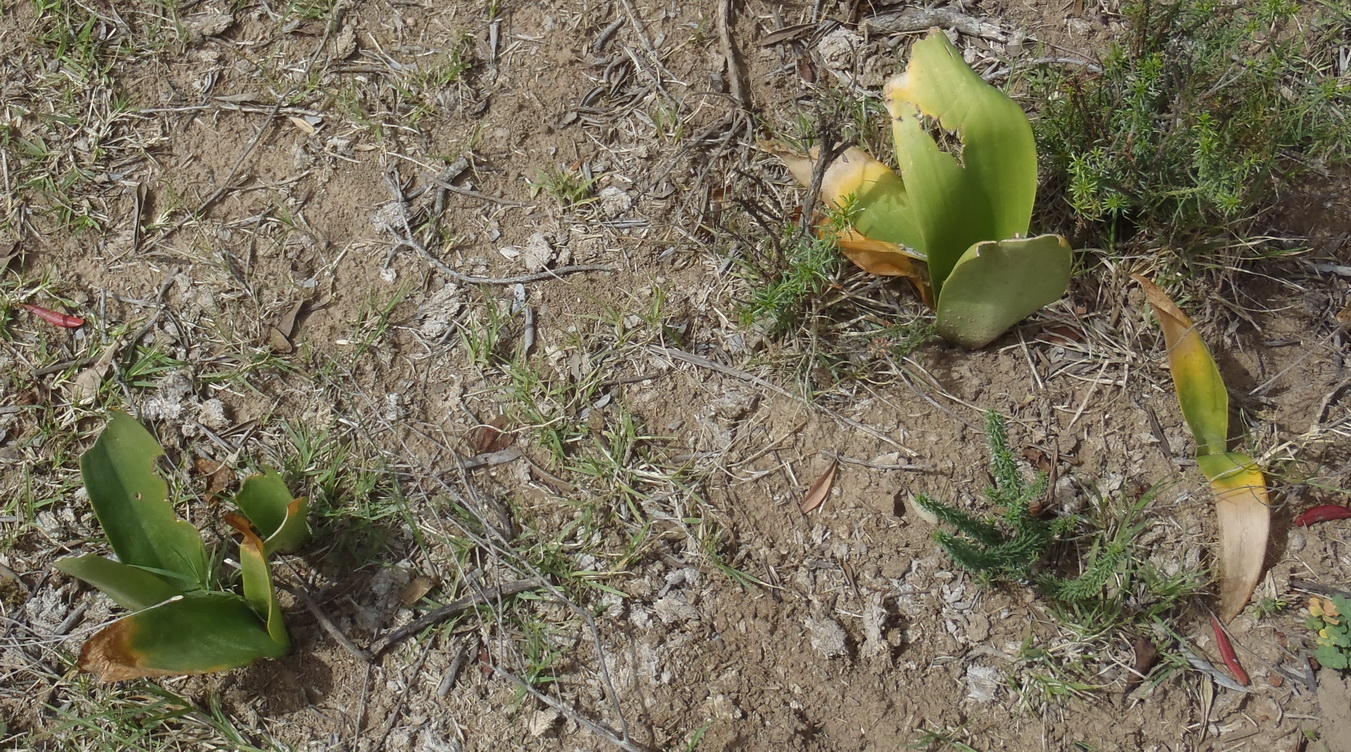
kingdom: Plantae
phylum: Tracheophyta
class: Liliopsida
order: Asparagales
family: Amaryllidaceae
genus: Haemanthus
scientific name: Haemanthus coccineus
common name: Cape-tulip
